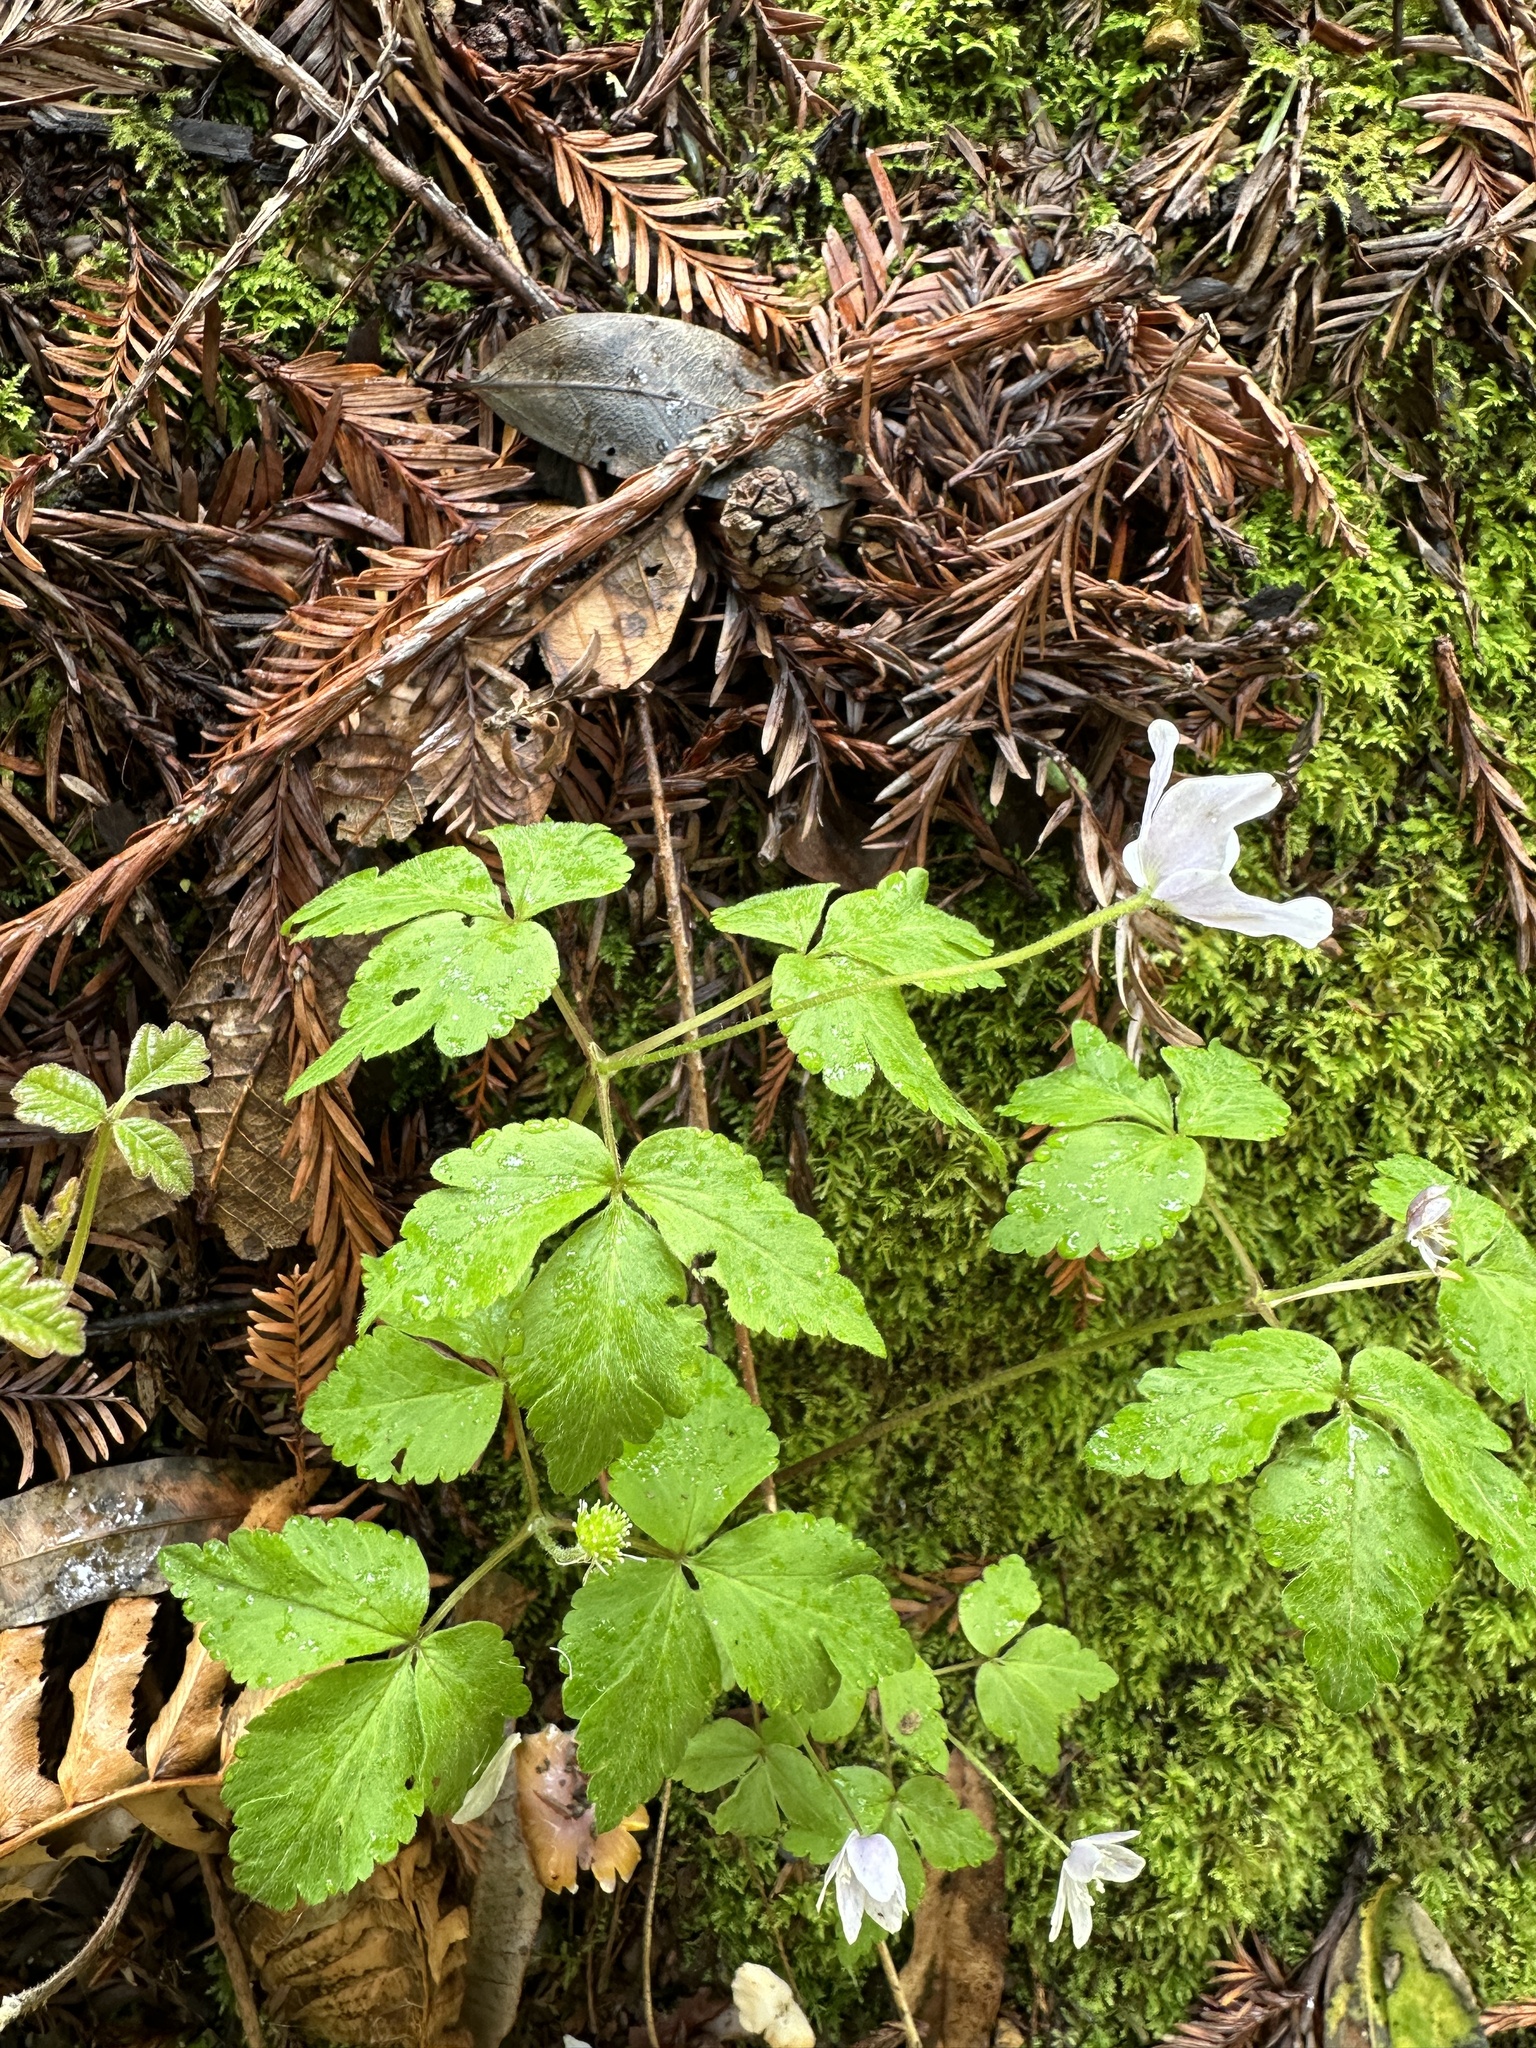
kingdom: Plantae
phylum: Tracheophyta
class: Magnoliopsida
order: Ranunculales
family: Ranunculaceae
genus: Anemone
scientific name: Anemone
